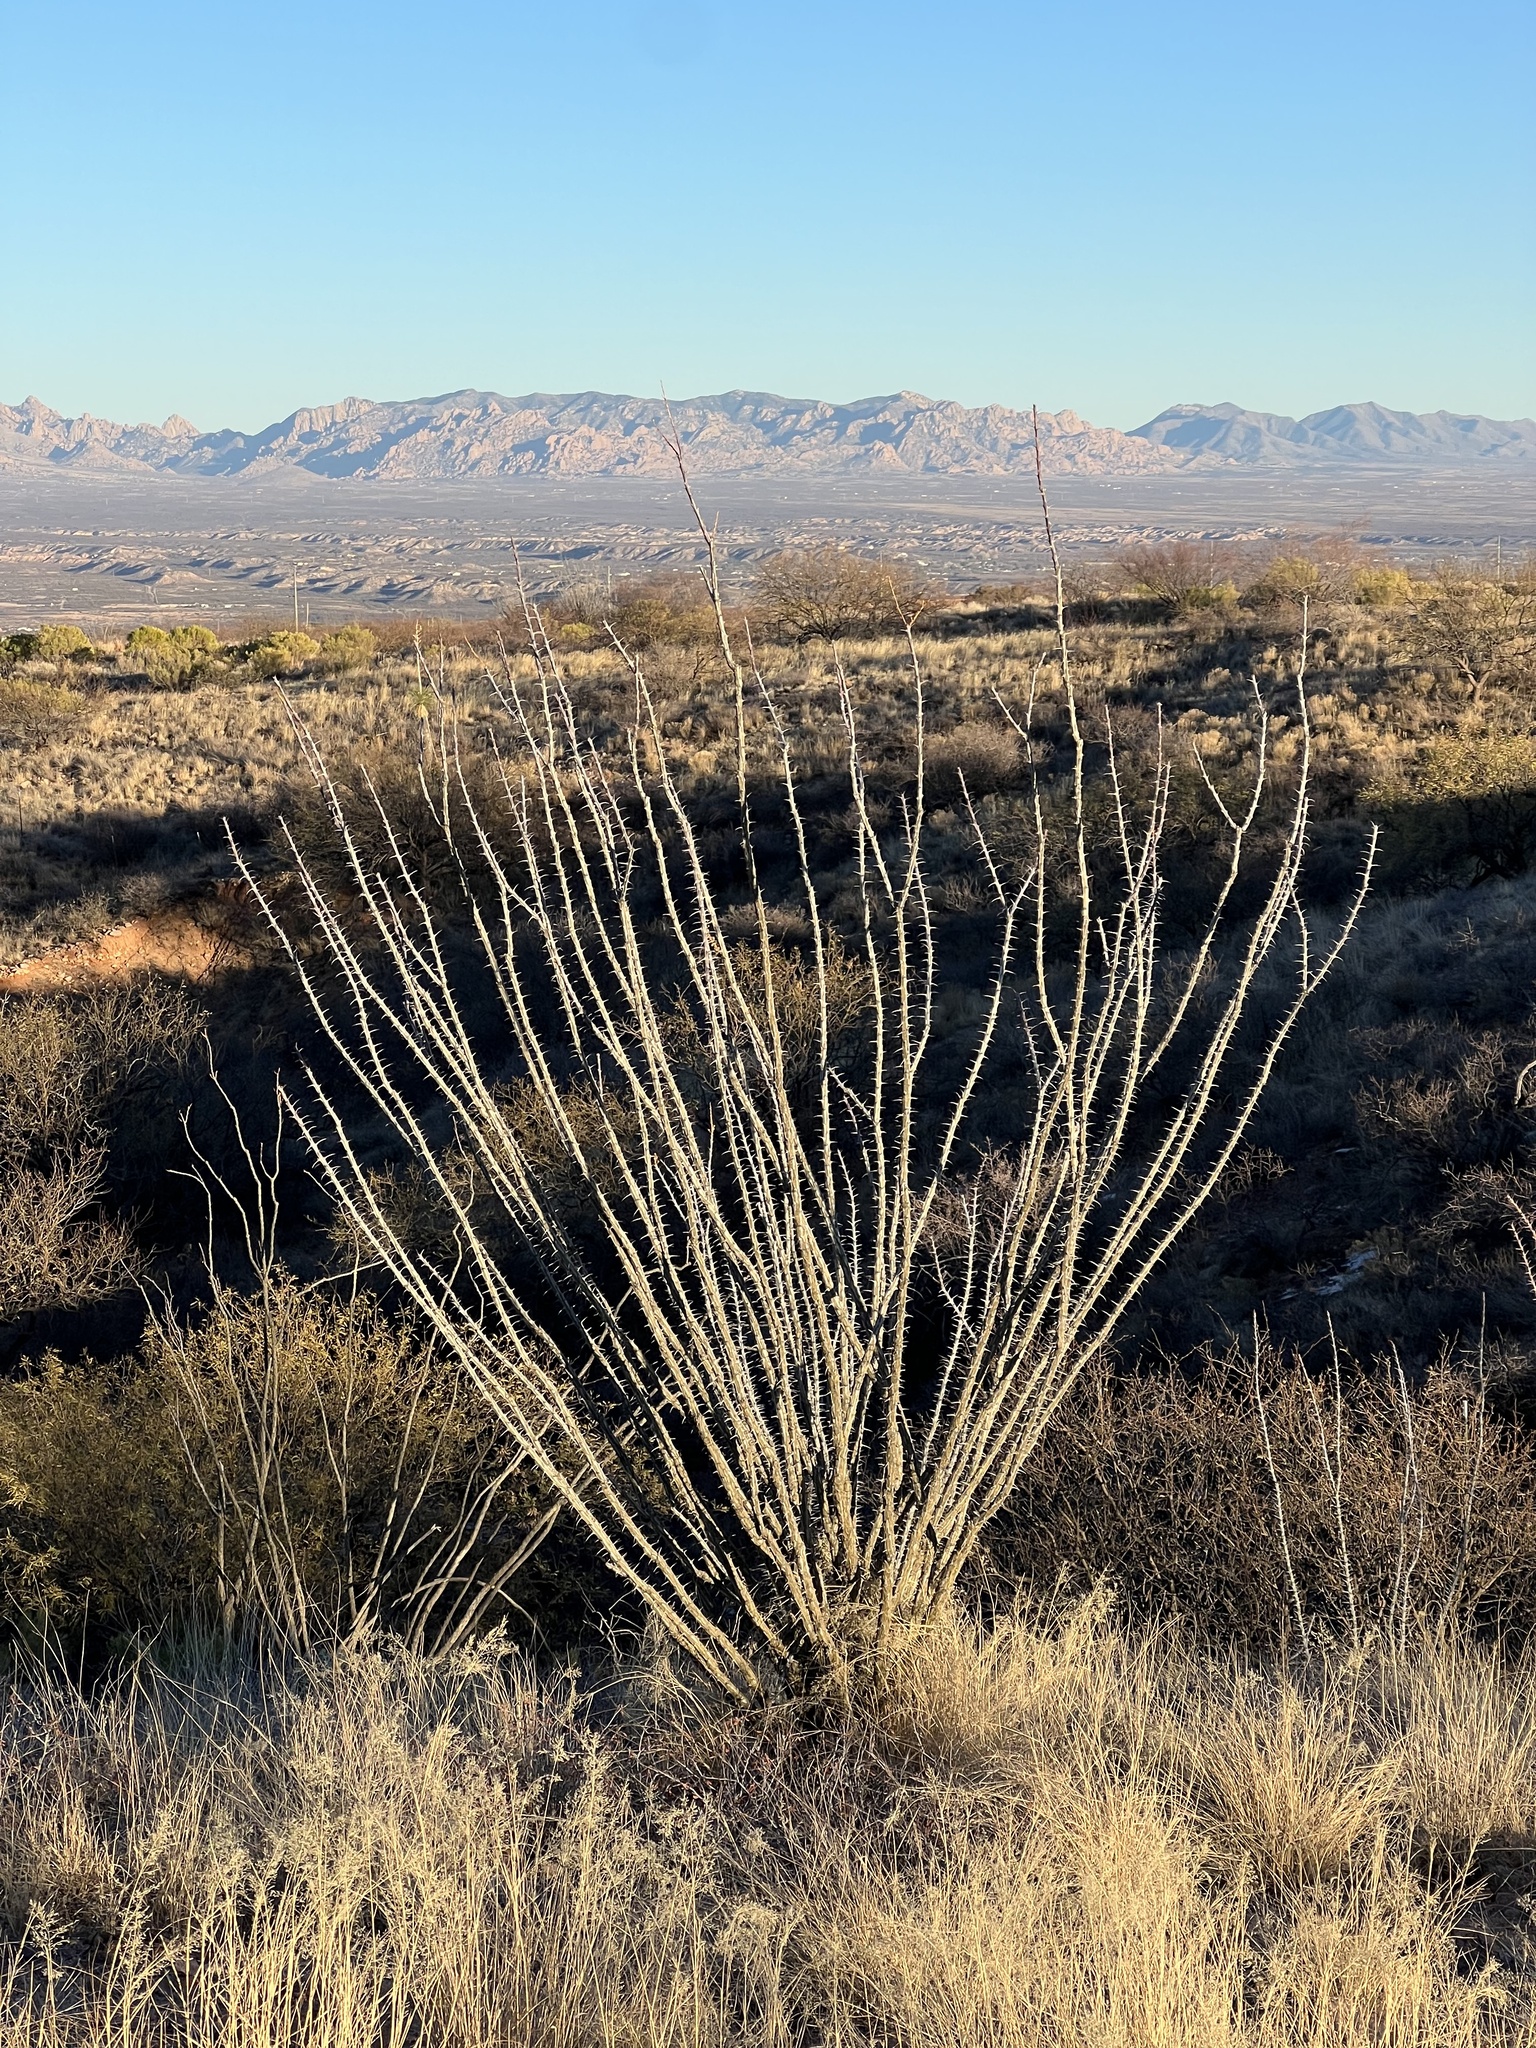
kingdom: Plantae
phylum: Tracheophyta
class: Magnoliopsida
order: Ericales
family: Fouquieriaceae
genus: Fouquieria
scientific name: Fouquieria splendens
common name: Vine-cactus
